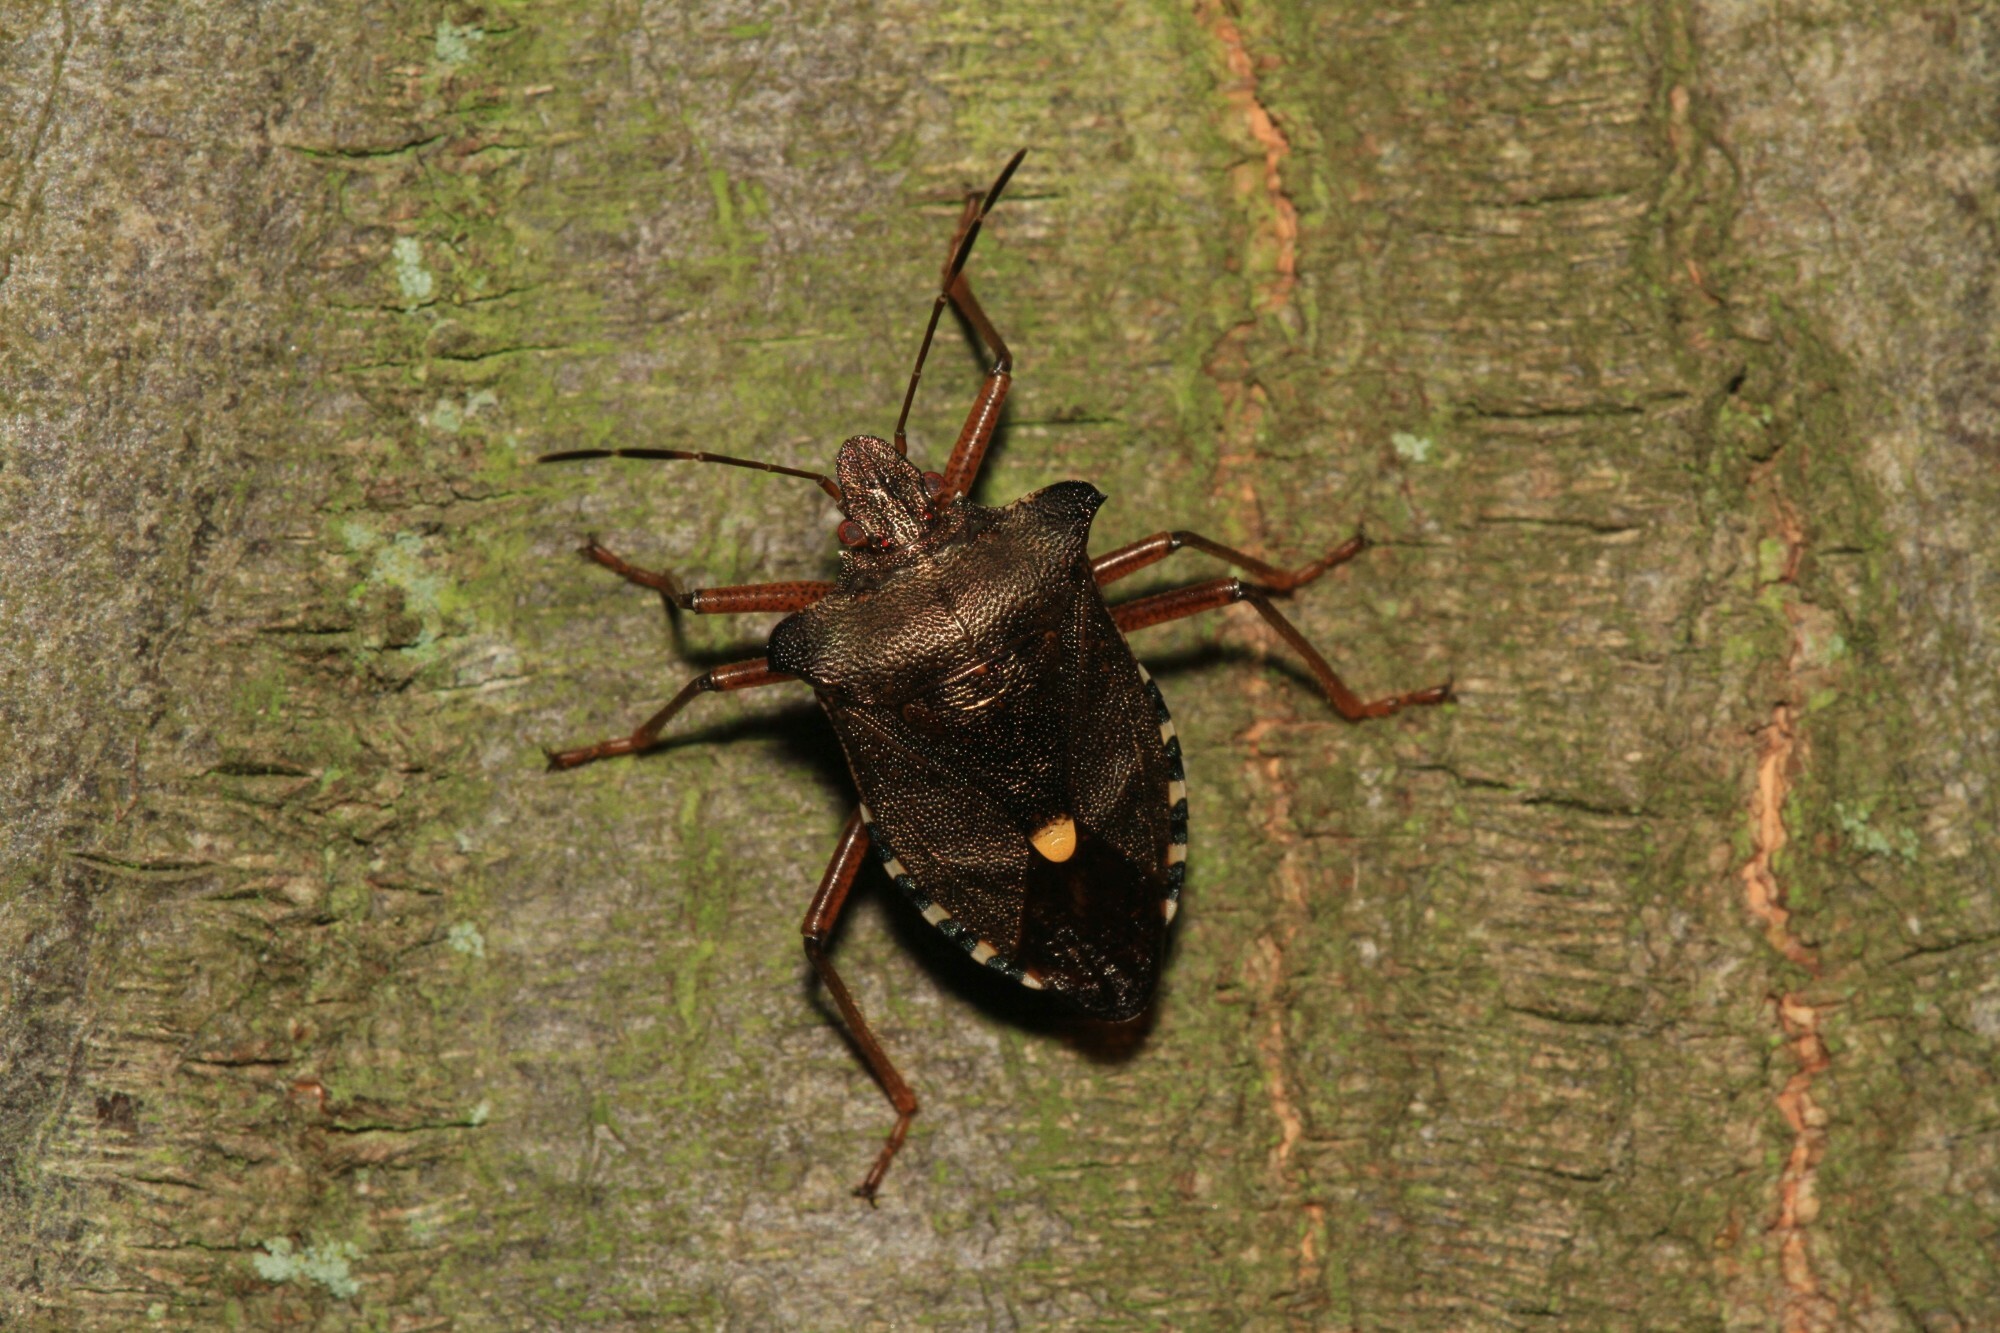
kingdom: Animalia
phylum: Arthropoda
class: Insecta
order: Hemiptera
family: Pentatomidae
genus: Pentatoma
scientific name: Pentatoma rufipes
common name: Forest bug
